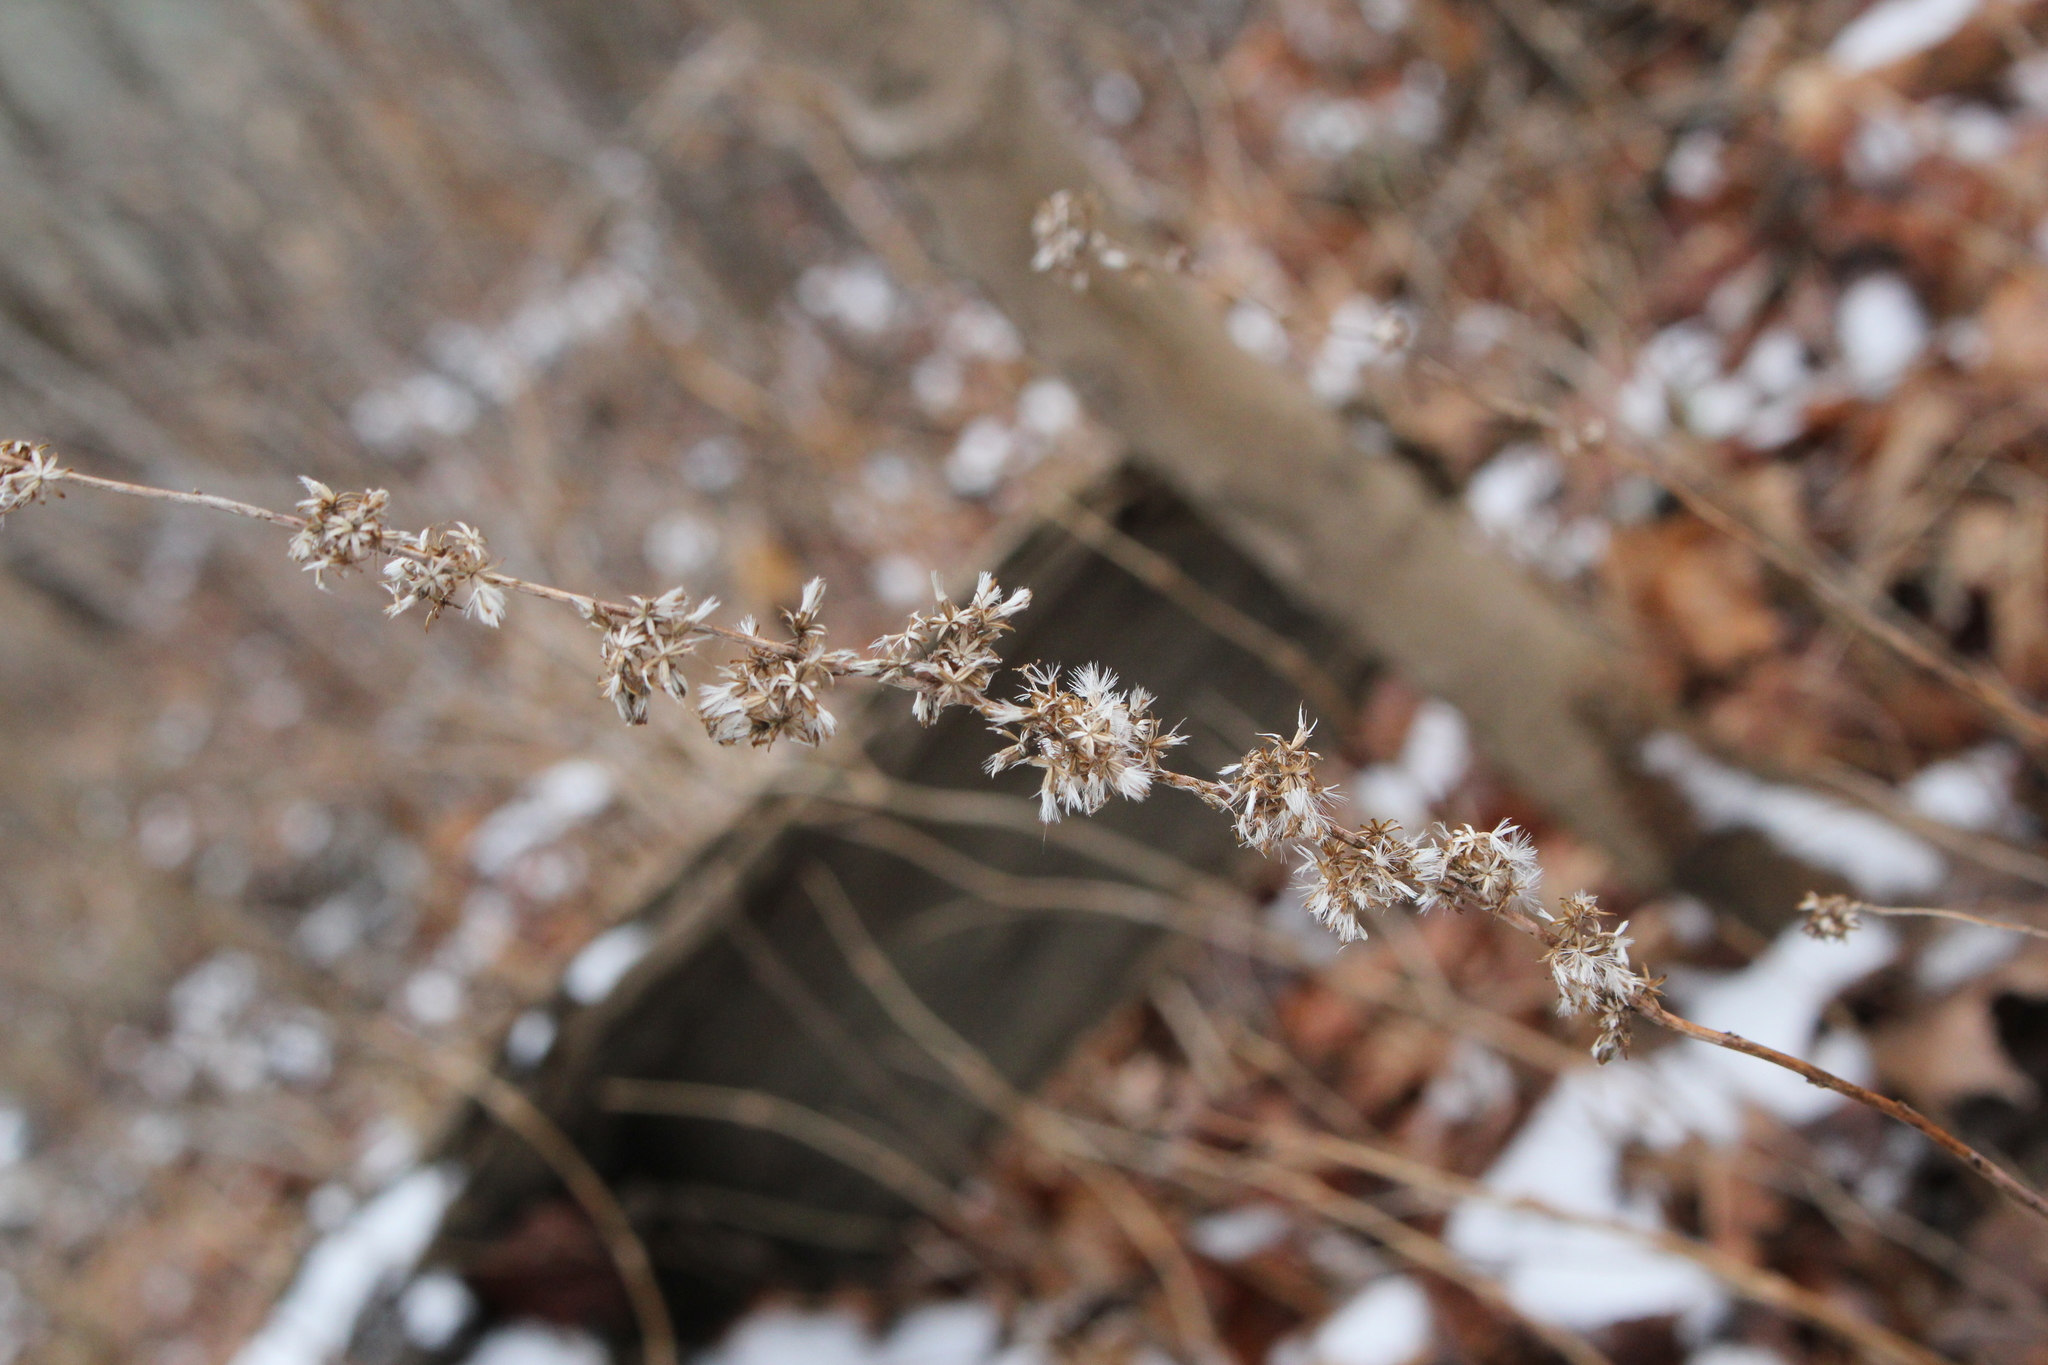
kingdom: Plantae
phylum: Tracheophyta
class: Magnoliopsida
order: Asterales
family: Asteraceae
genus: Solidago
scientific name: Solidago caesia
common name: Woodland goldenrod
